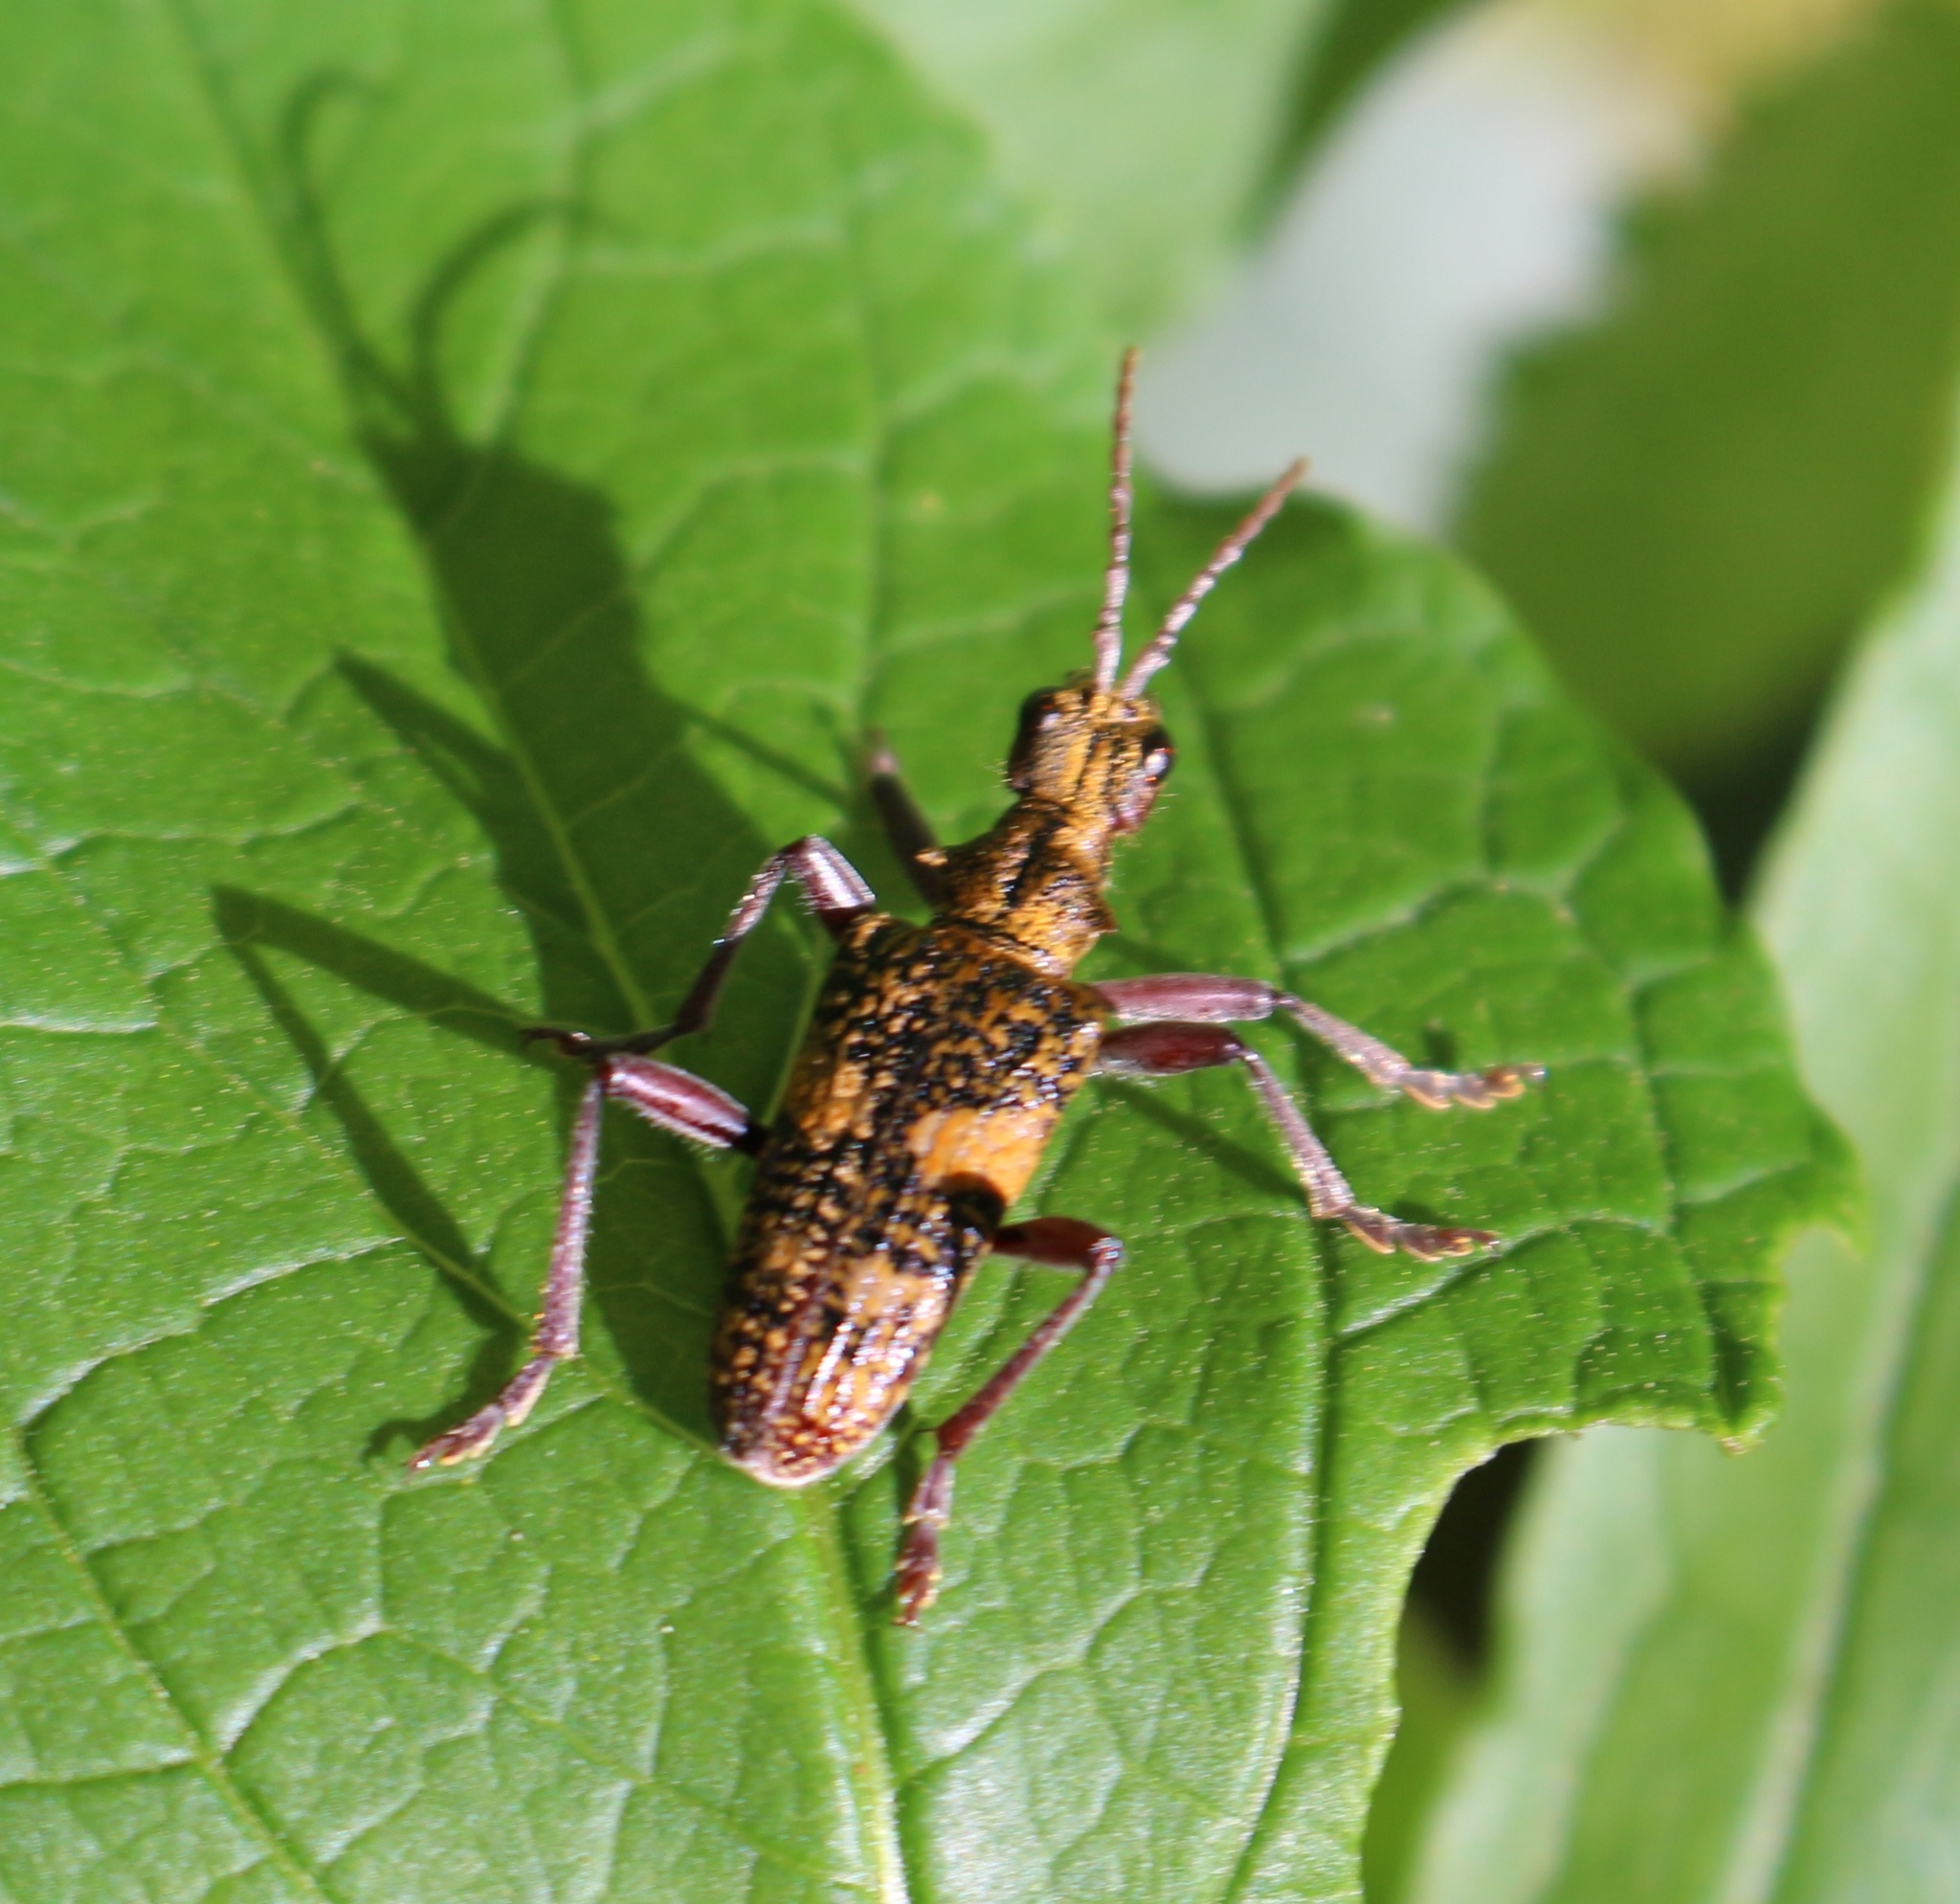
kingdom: Animalia
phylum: Arthropoda
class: Insecta
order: Coleoptera
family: Cerambycidae
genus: Rhagium
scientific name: Rhagium caucasicum
